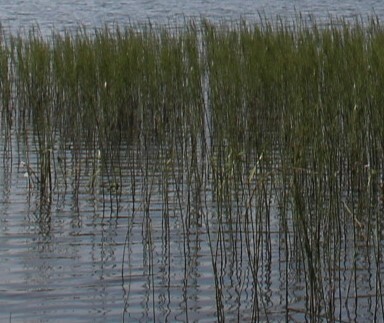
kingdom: Plantae
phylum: Tracheophyta
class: Liliopsida
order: Poales
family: Cyperaceae
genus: Schoenoplectus
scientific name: Schoenoplectus lacustris
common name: Common club-rush
